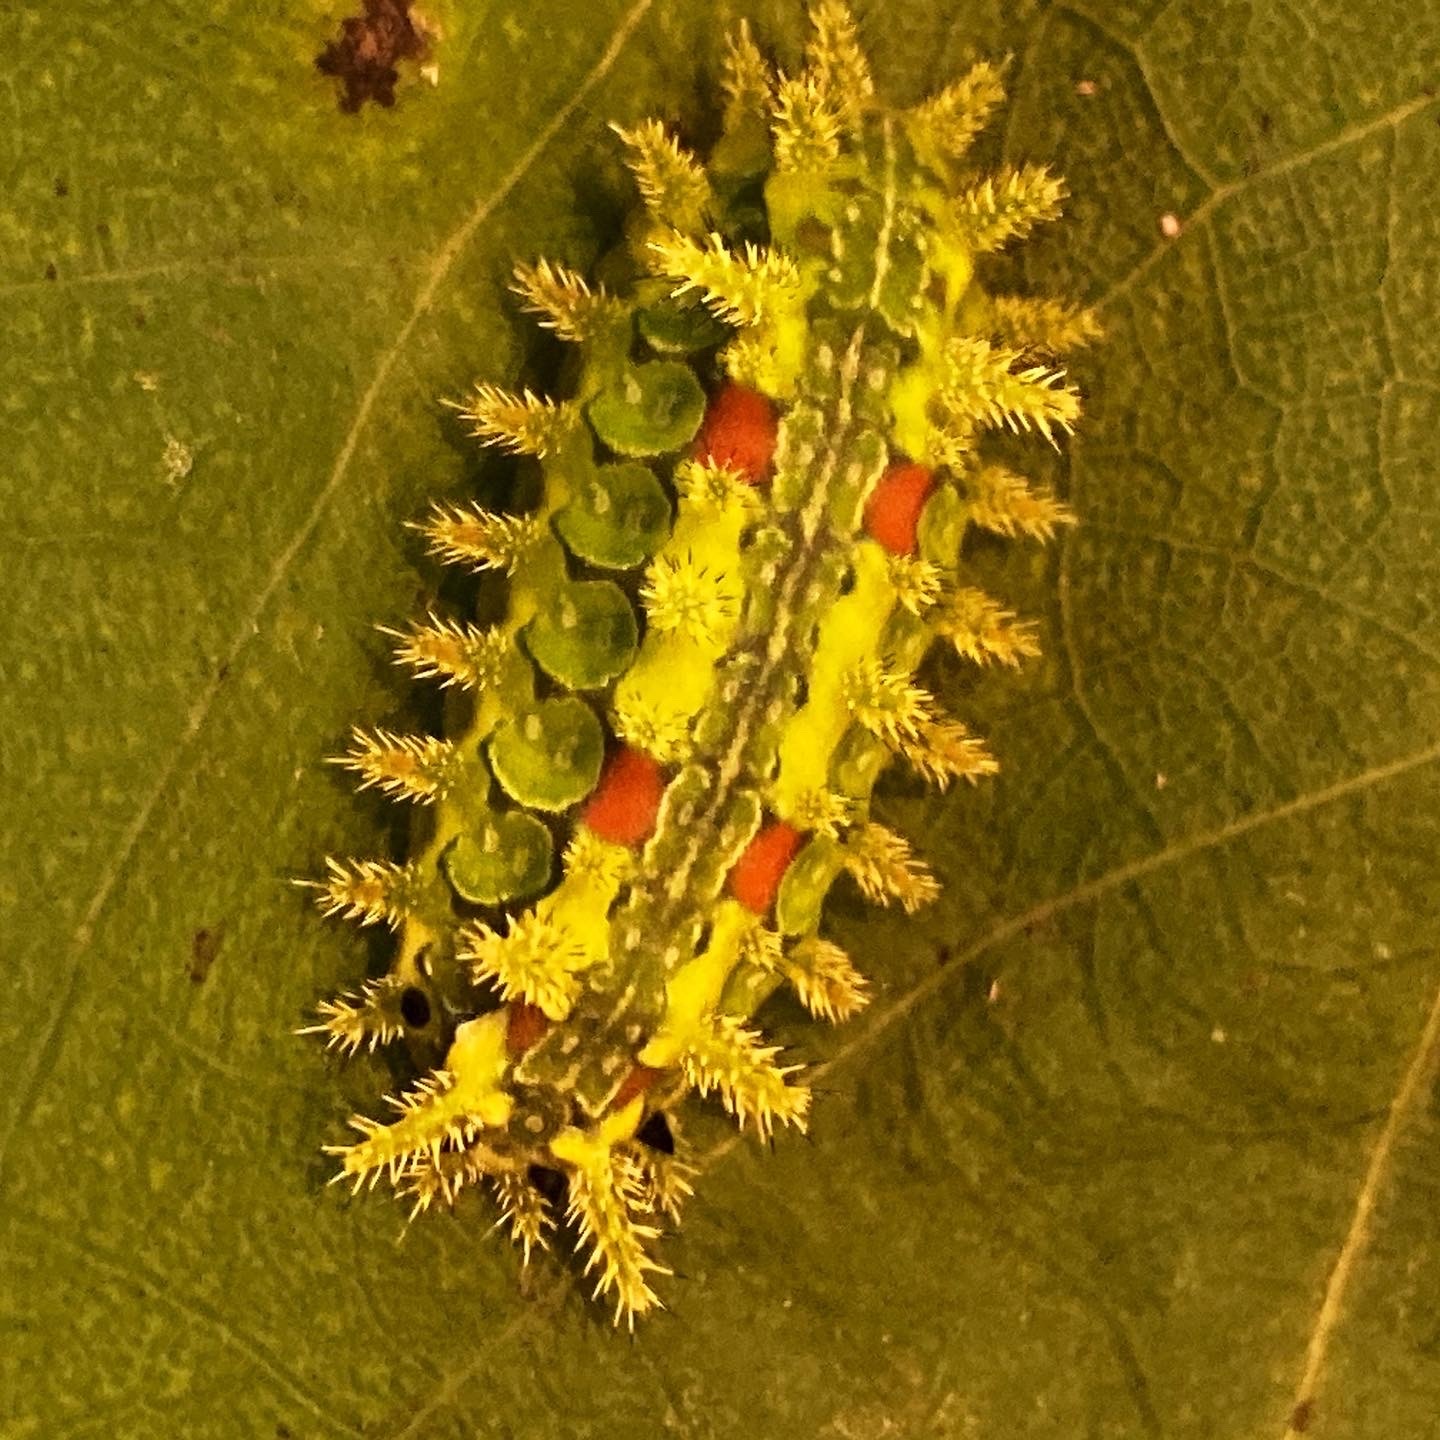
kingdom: Animalia
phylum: Arthropoda
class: Insecta
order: Lepidoptera
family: Limacodidae
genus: Euclea
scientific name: Euclea delphinii
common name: Spiny oak-slug moth
